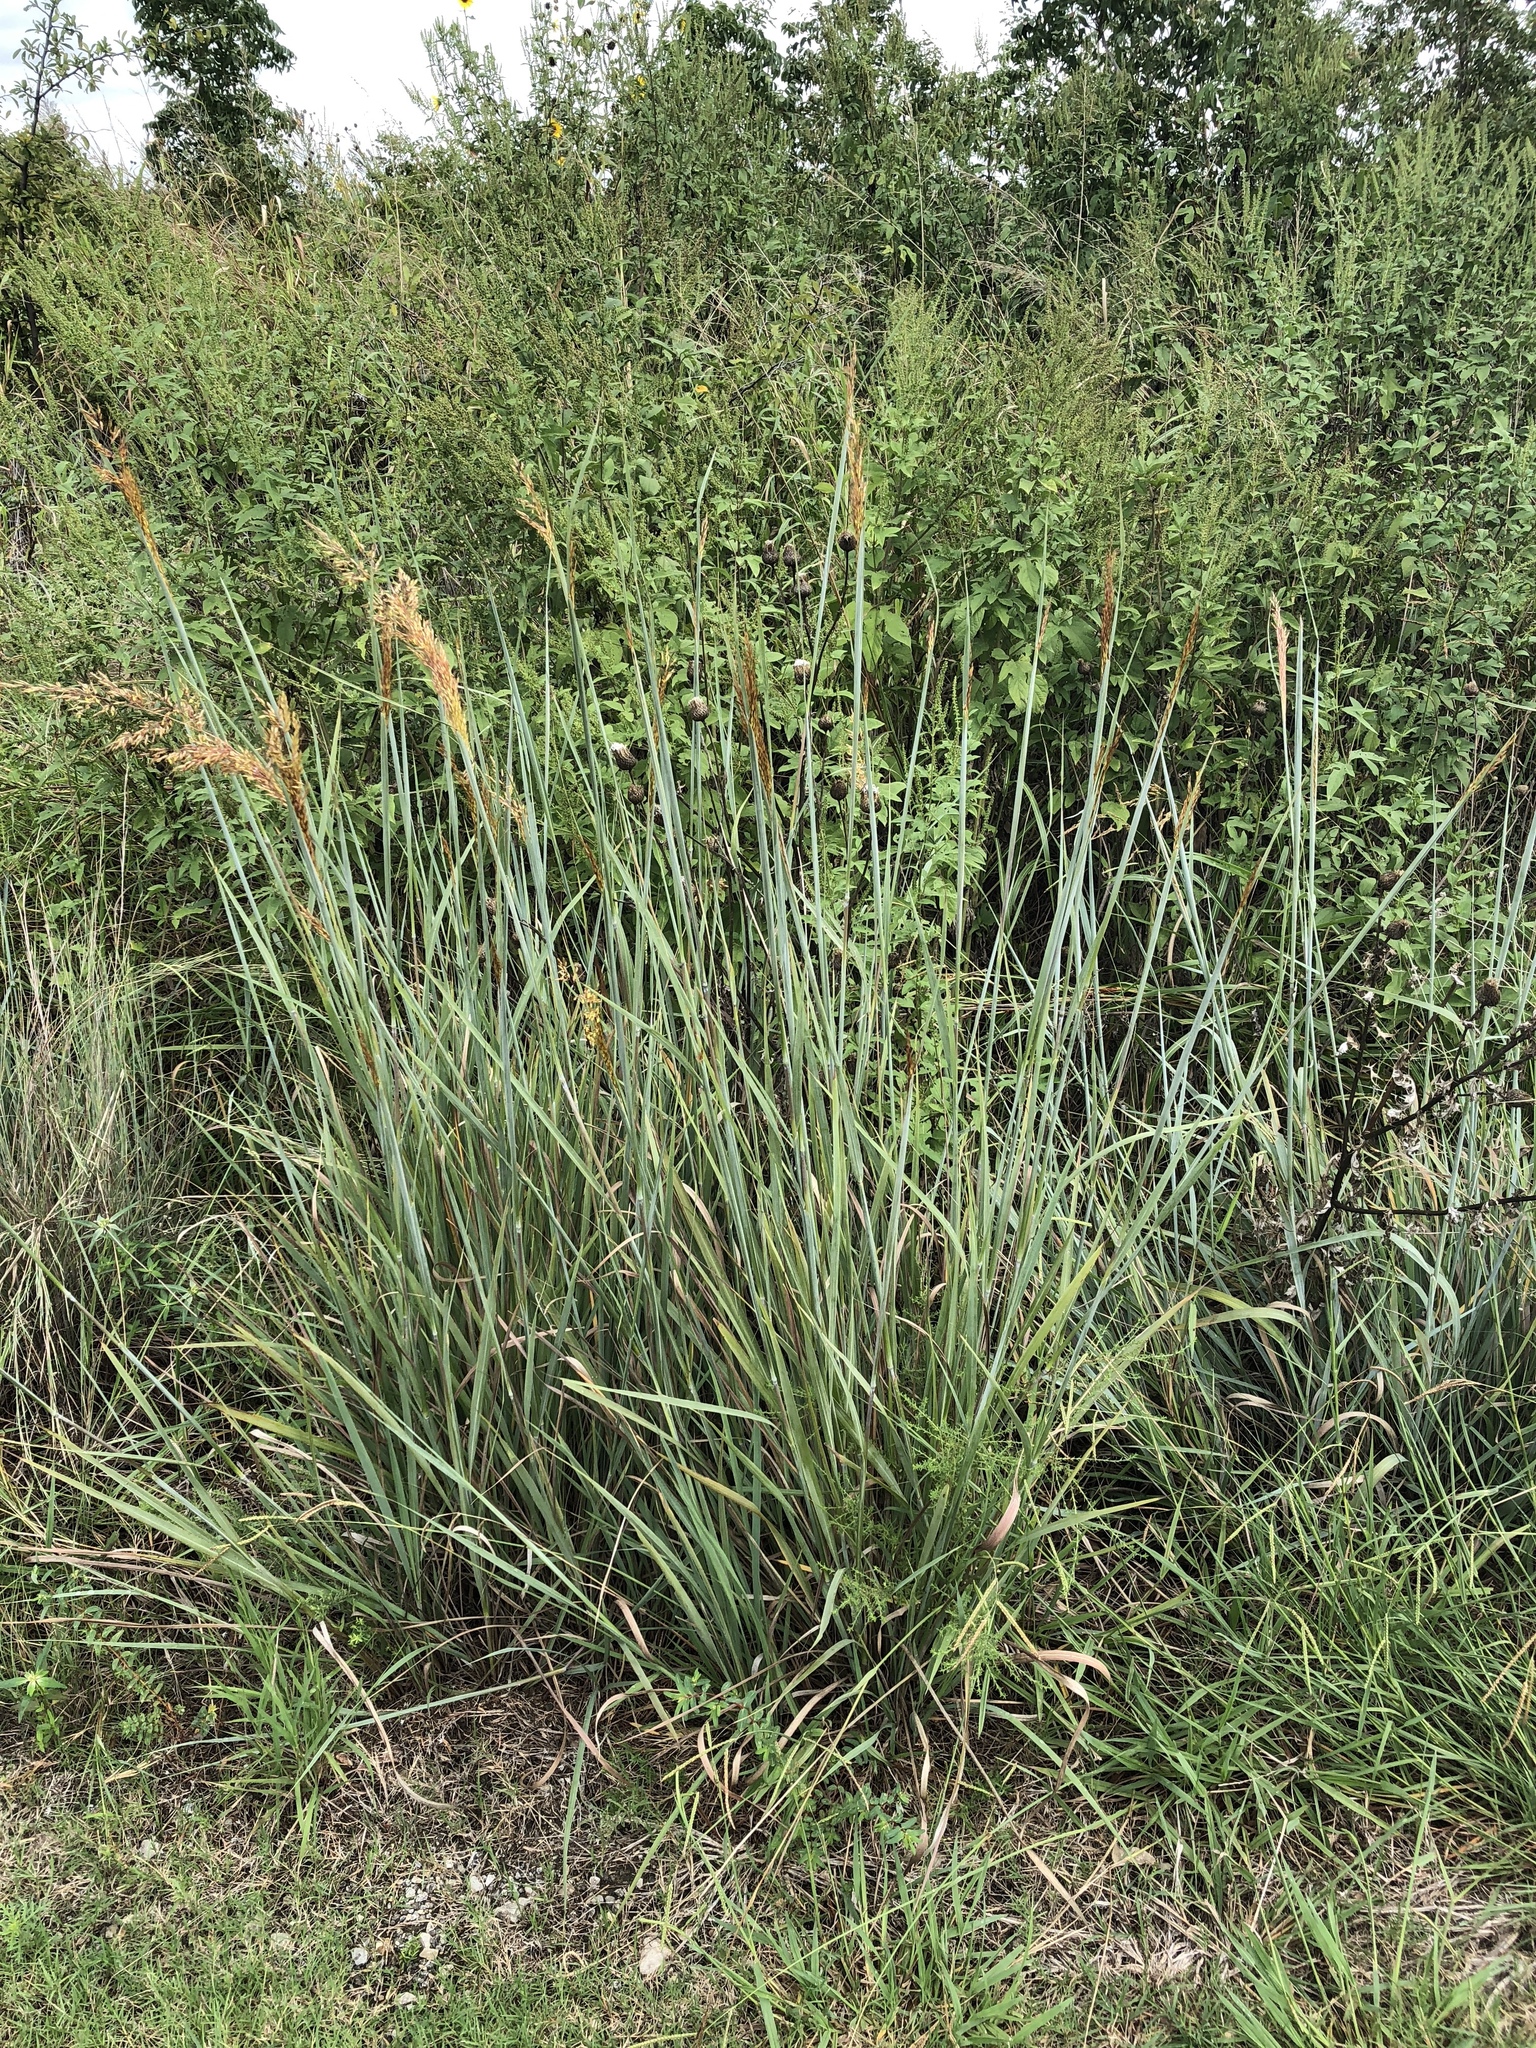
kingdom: Plantae
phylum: Tracheophyta
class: Liliopsida
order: Poales
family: Poaceae
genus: Sorghastrum
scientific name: Sorghastrum nutans
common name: Indian grass
